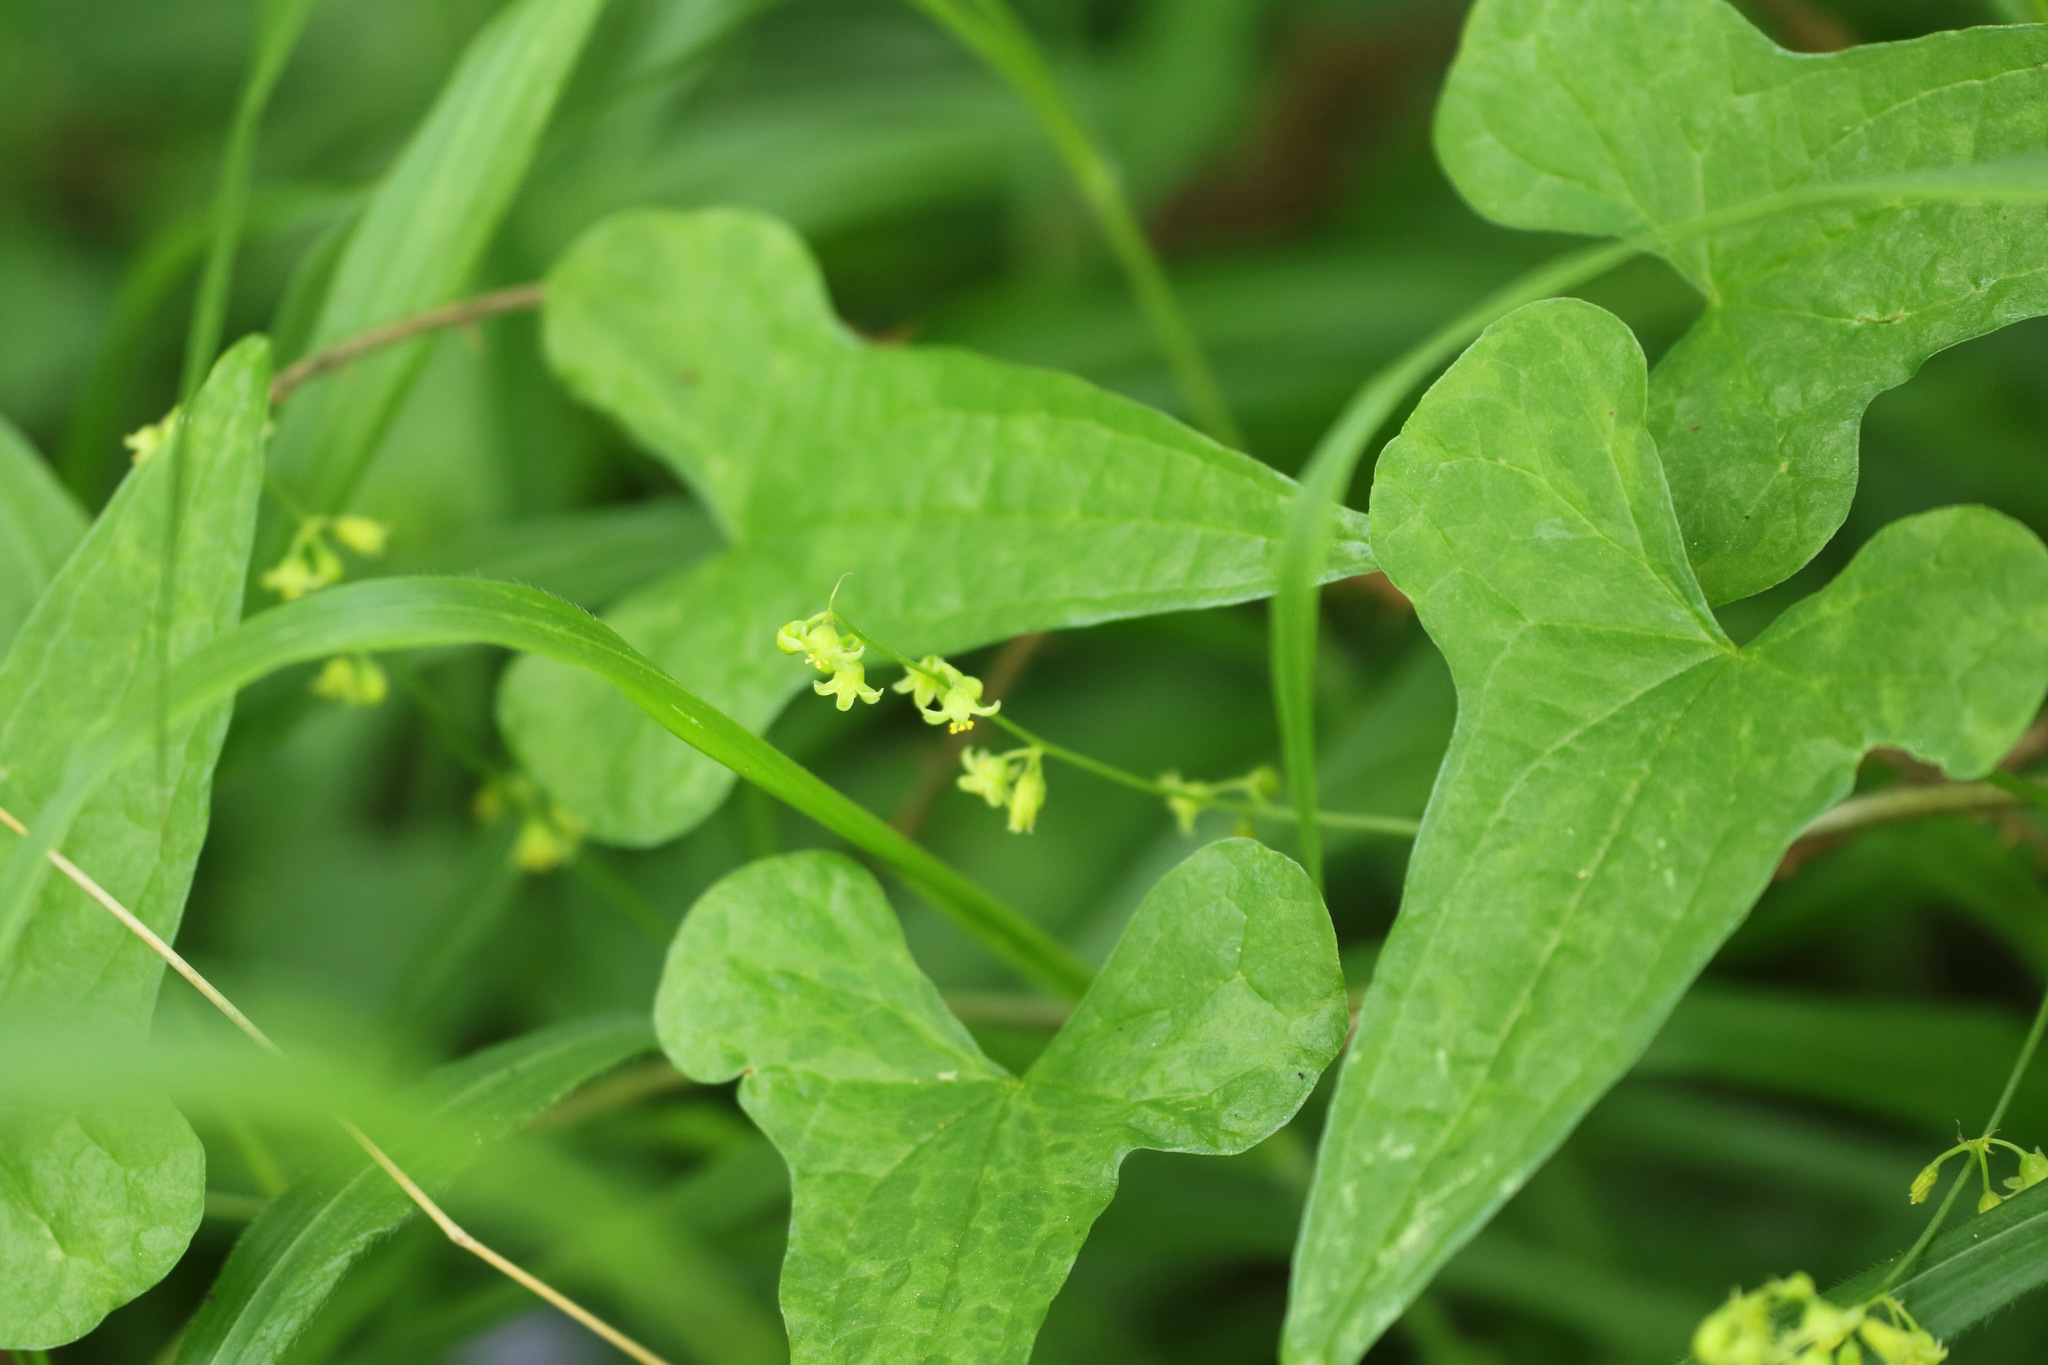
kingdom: Plantae
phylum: Tracheophyta
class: Liliopsida
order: Dioscoreales
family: Dioscoreaceae
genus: Dioscorea
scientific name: Dioscorea communis
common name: Black-bindweed
